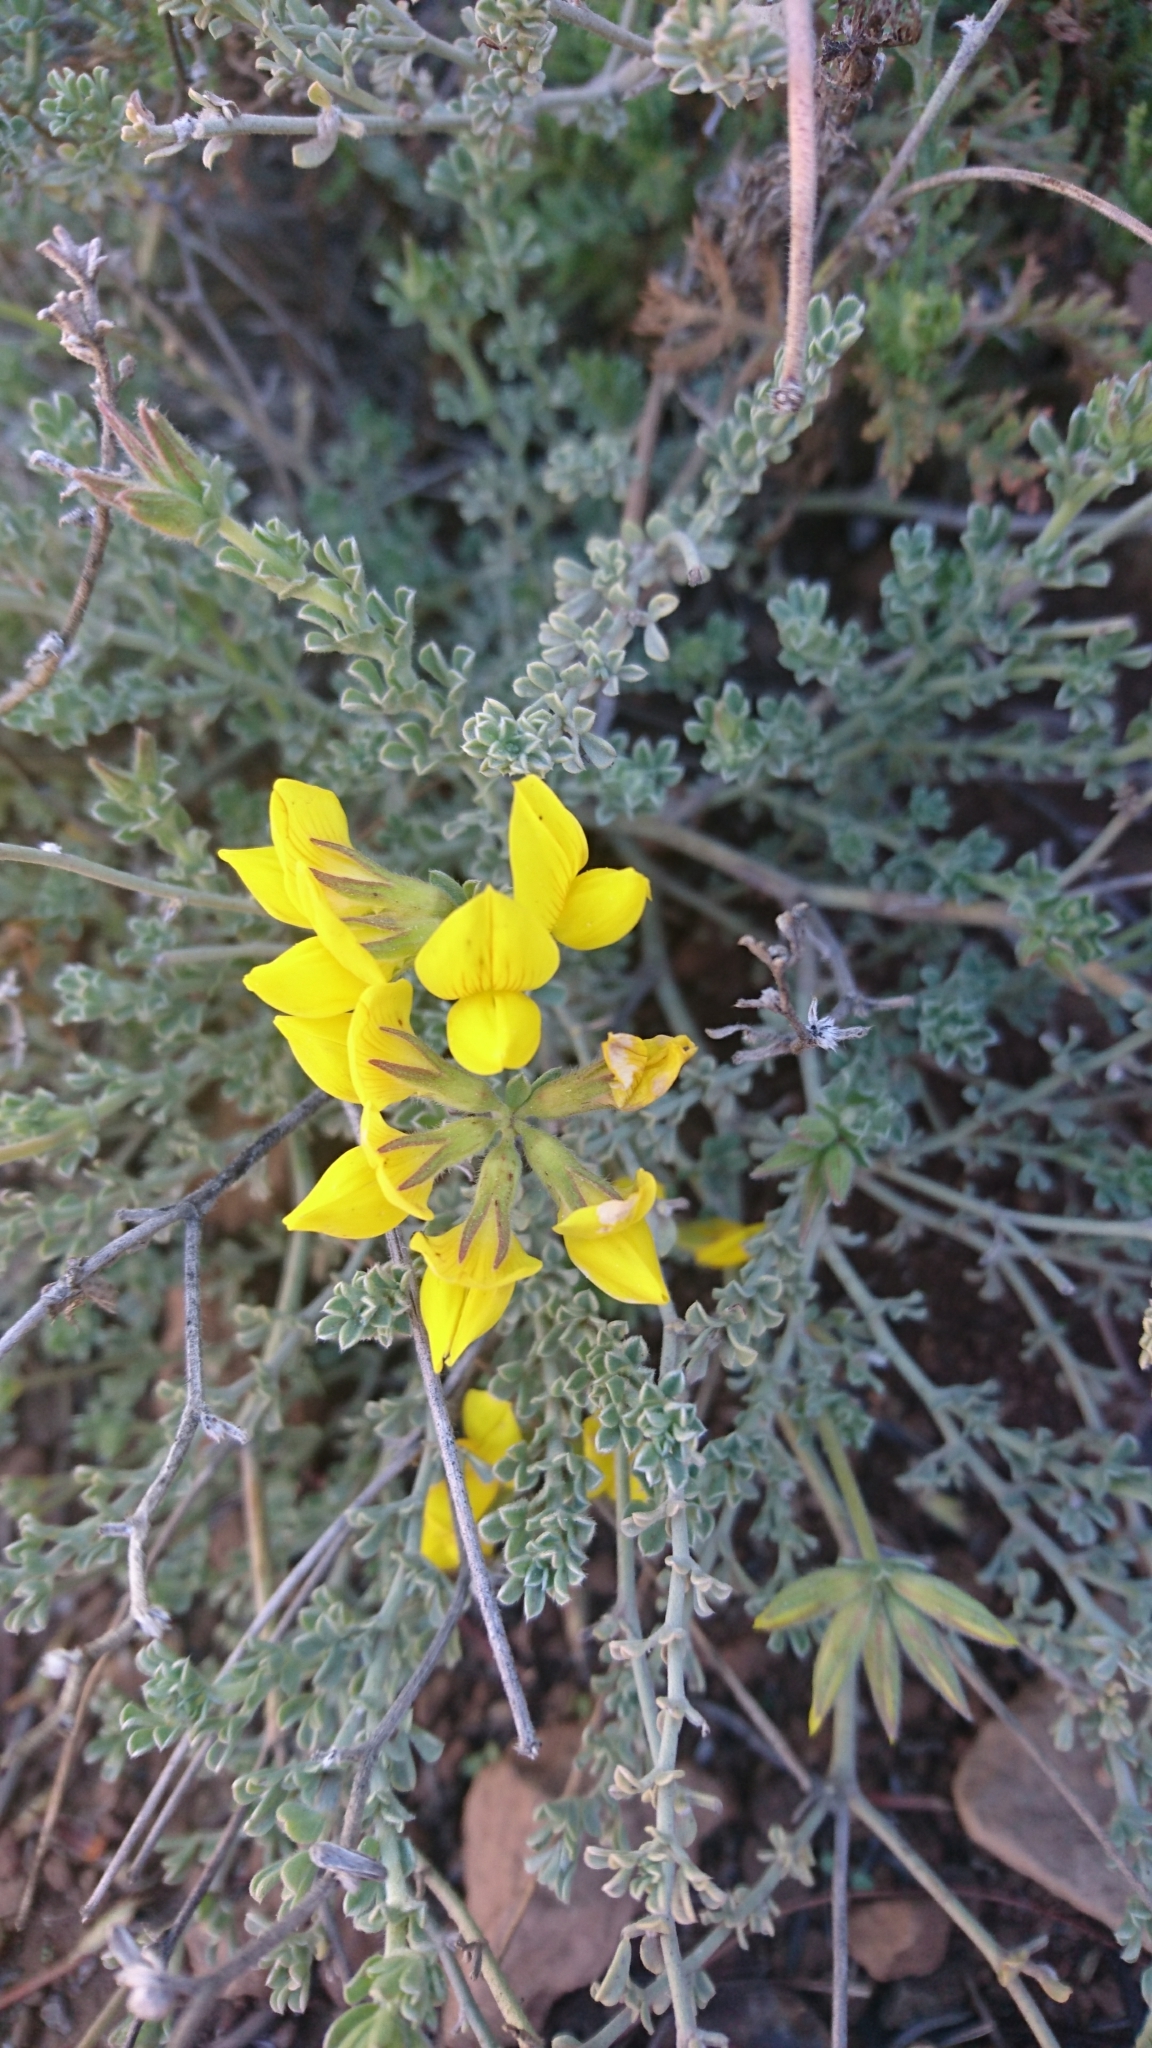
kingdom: Plantae
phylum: Tracheophyta
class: Magnoliopsida
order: Fabales
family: Fabaceae
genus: Lotus
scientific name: Lotus sessilifolius
